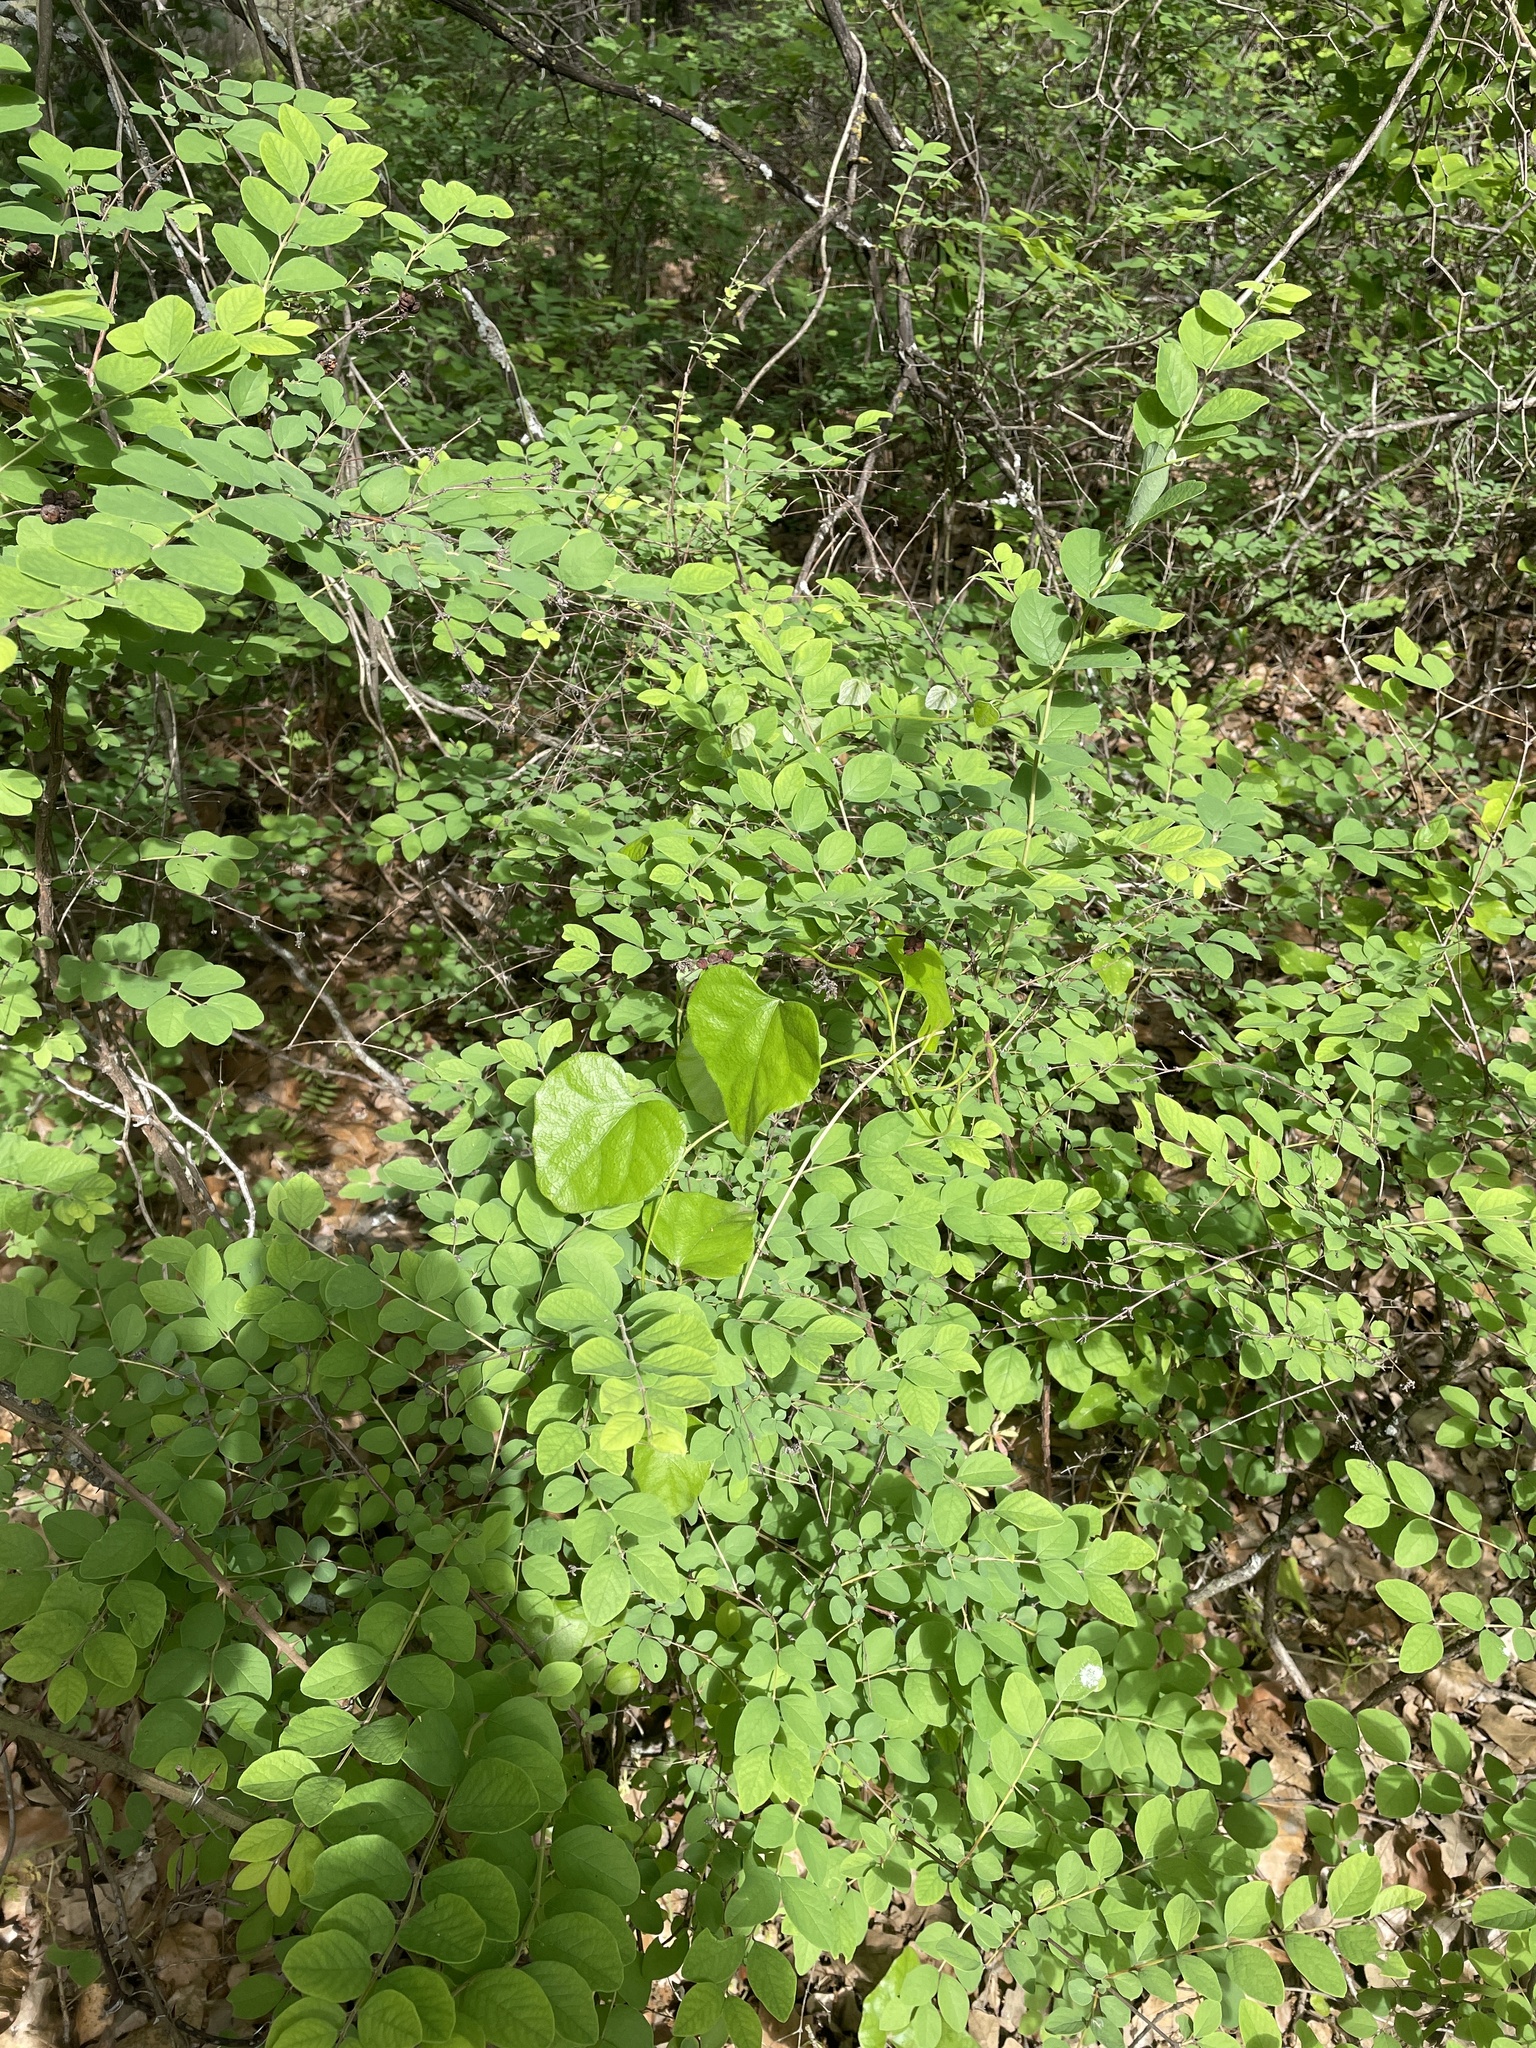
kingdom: Plantae
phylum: Tracheophyta
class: Magnoliopsida
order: Dipsacales
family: Caprifoliaceae
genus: Symphoricarpos
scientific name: Symphoricarpos orbiculatus
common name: Coralberry
